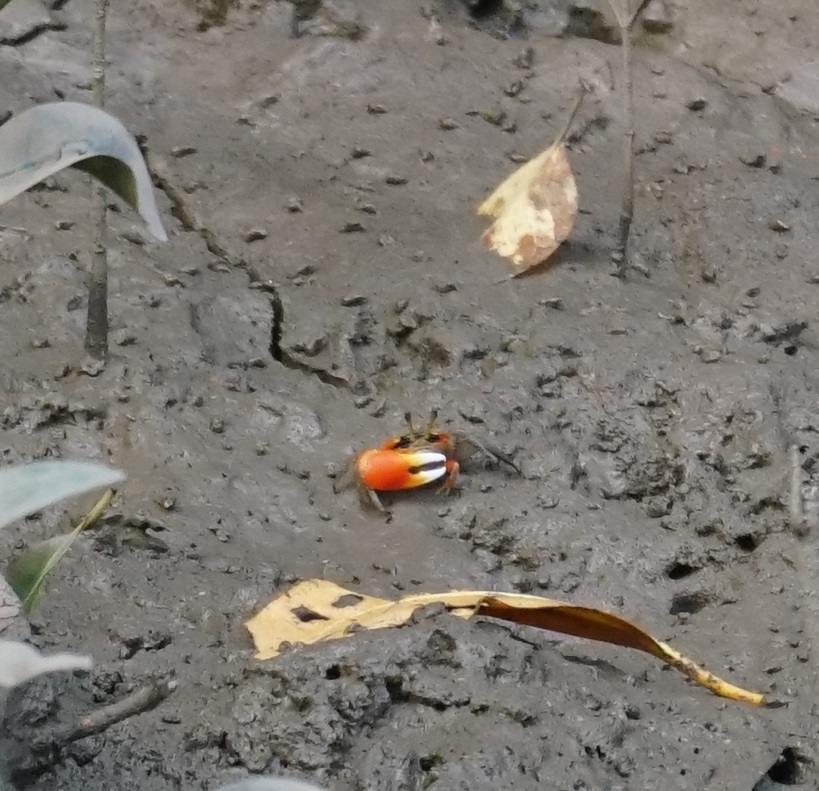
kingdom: Animalia
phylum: Arthropoda
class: Malacostraca
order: Decapoda
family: Ocypodidae
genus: Tubuca
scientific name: Tubuca coarctata
